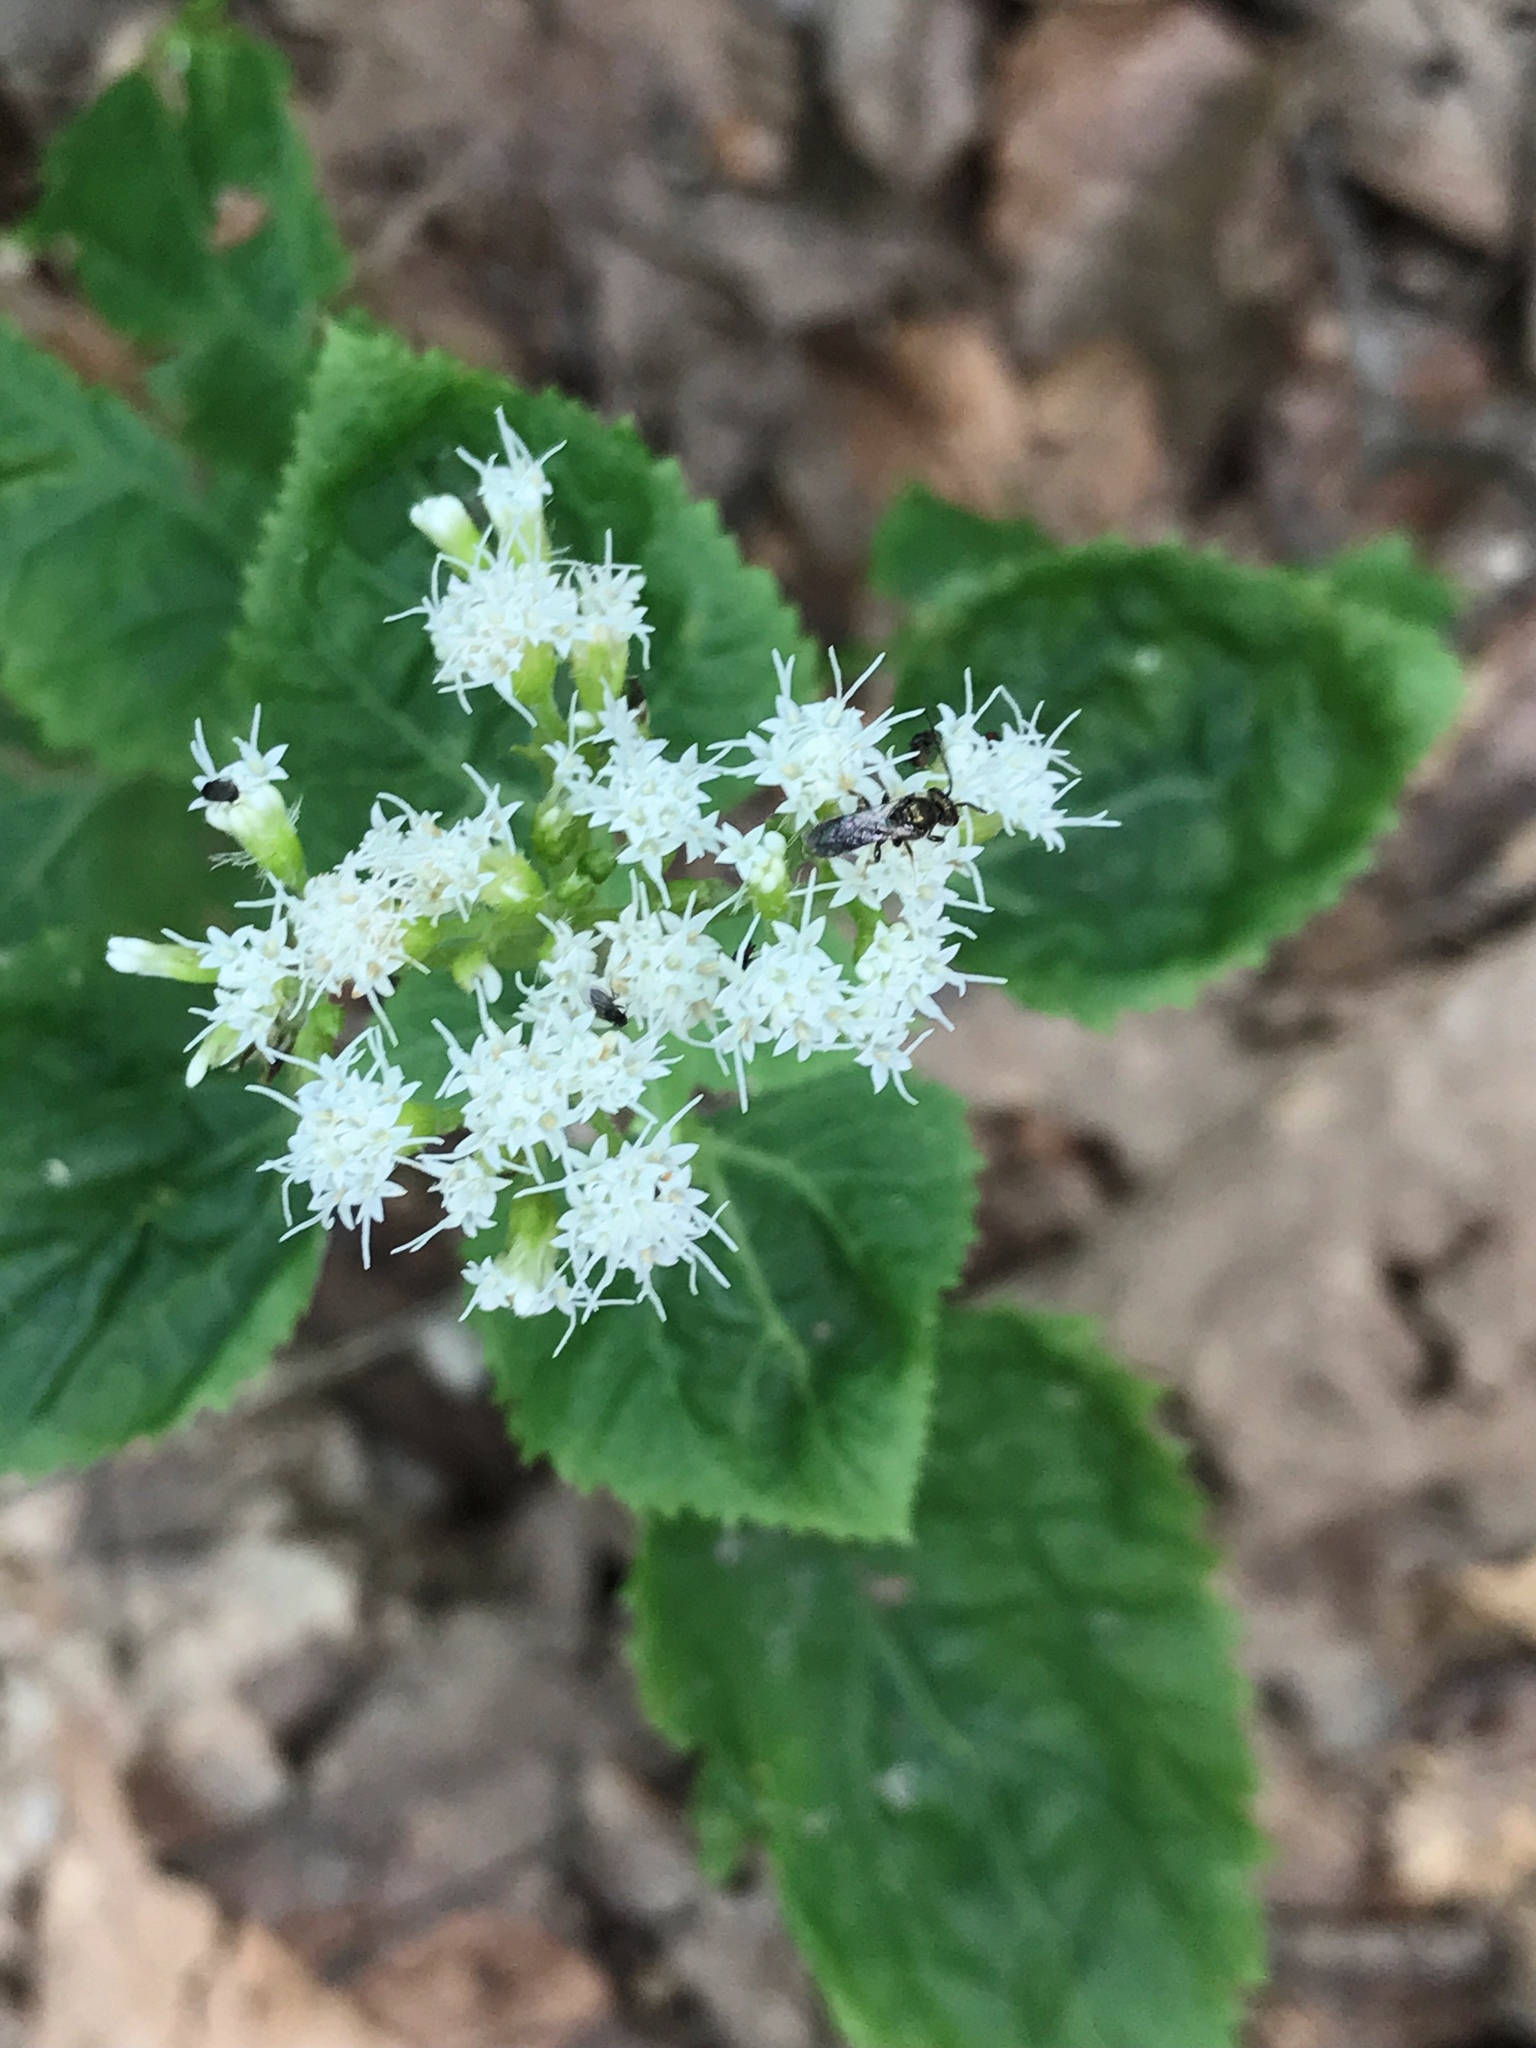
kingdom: Plantae
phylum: Tracheophyta
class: Magnoliopsida
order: Asterales
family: Asteraceae
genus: Ageratina
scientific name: Ageratina altissima
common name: White snakeroot
